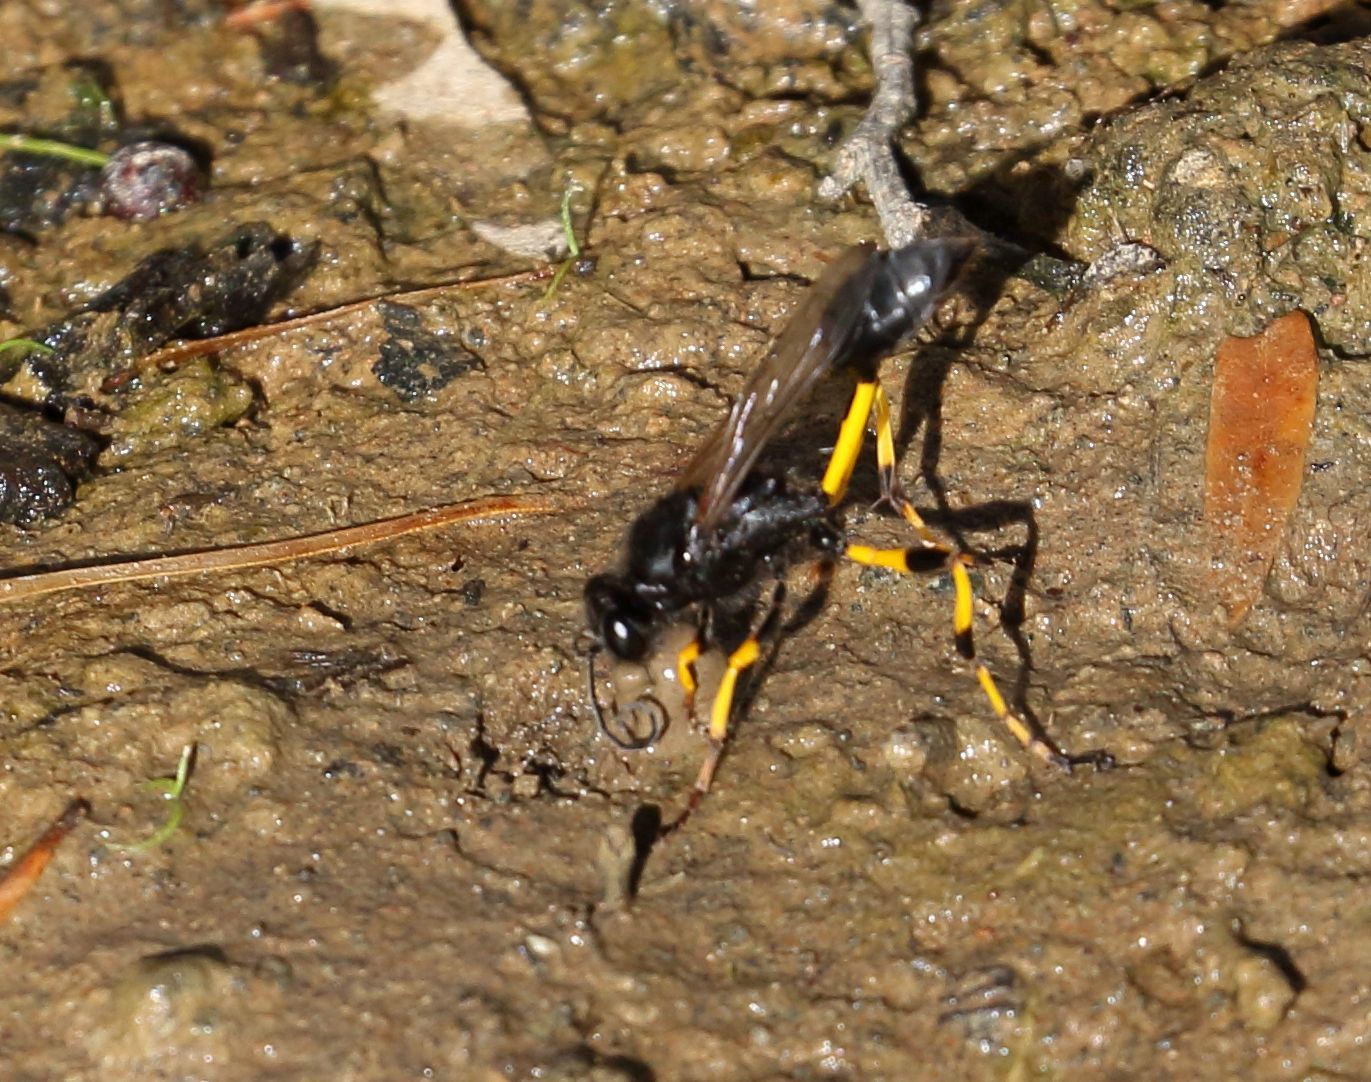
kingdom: Animalia
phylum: Arthropoda
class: Insecta
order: Hymenoptera
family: Sphecidae
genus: Sceliphron
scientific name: Sceliphron spirifex
